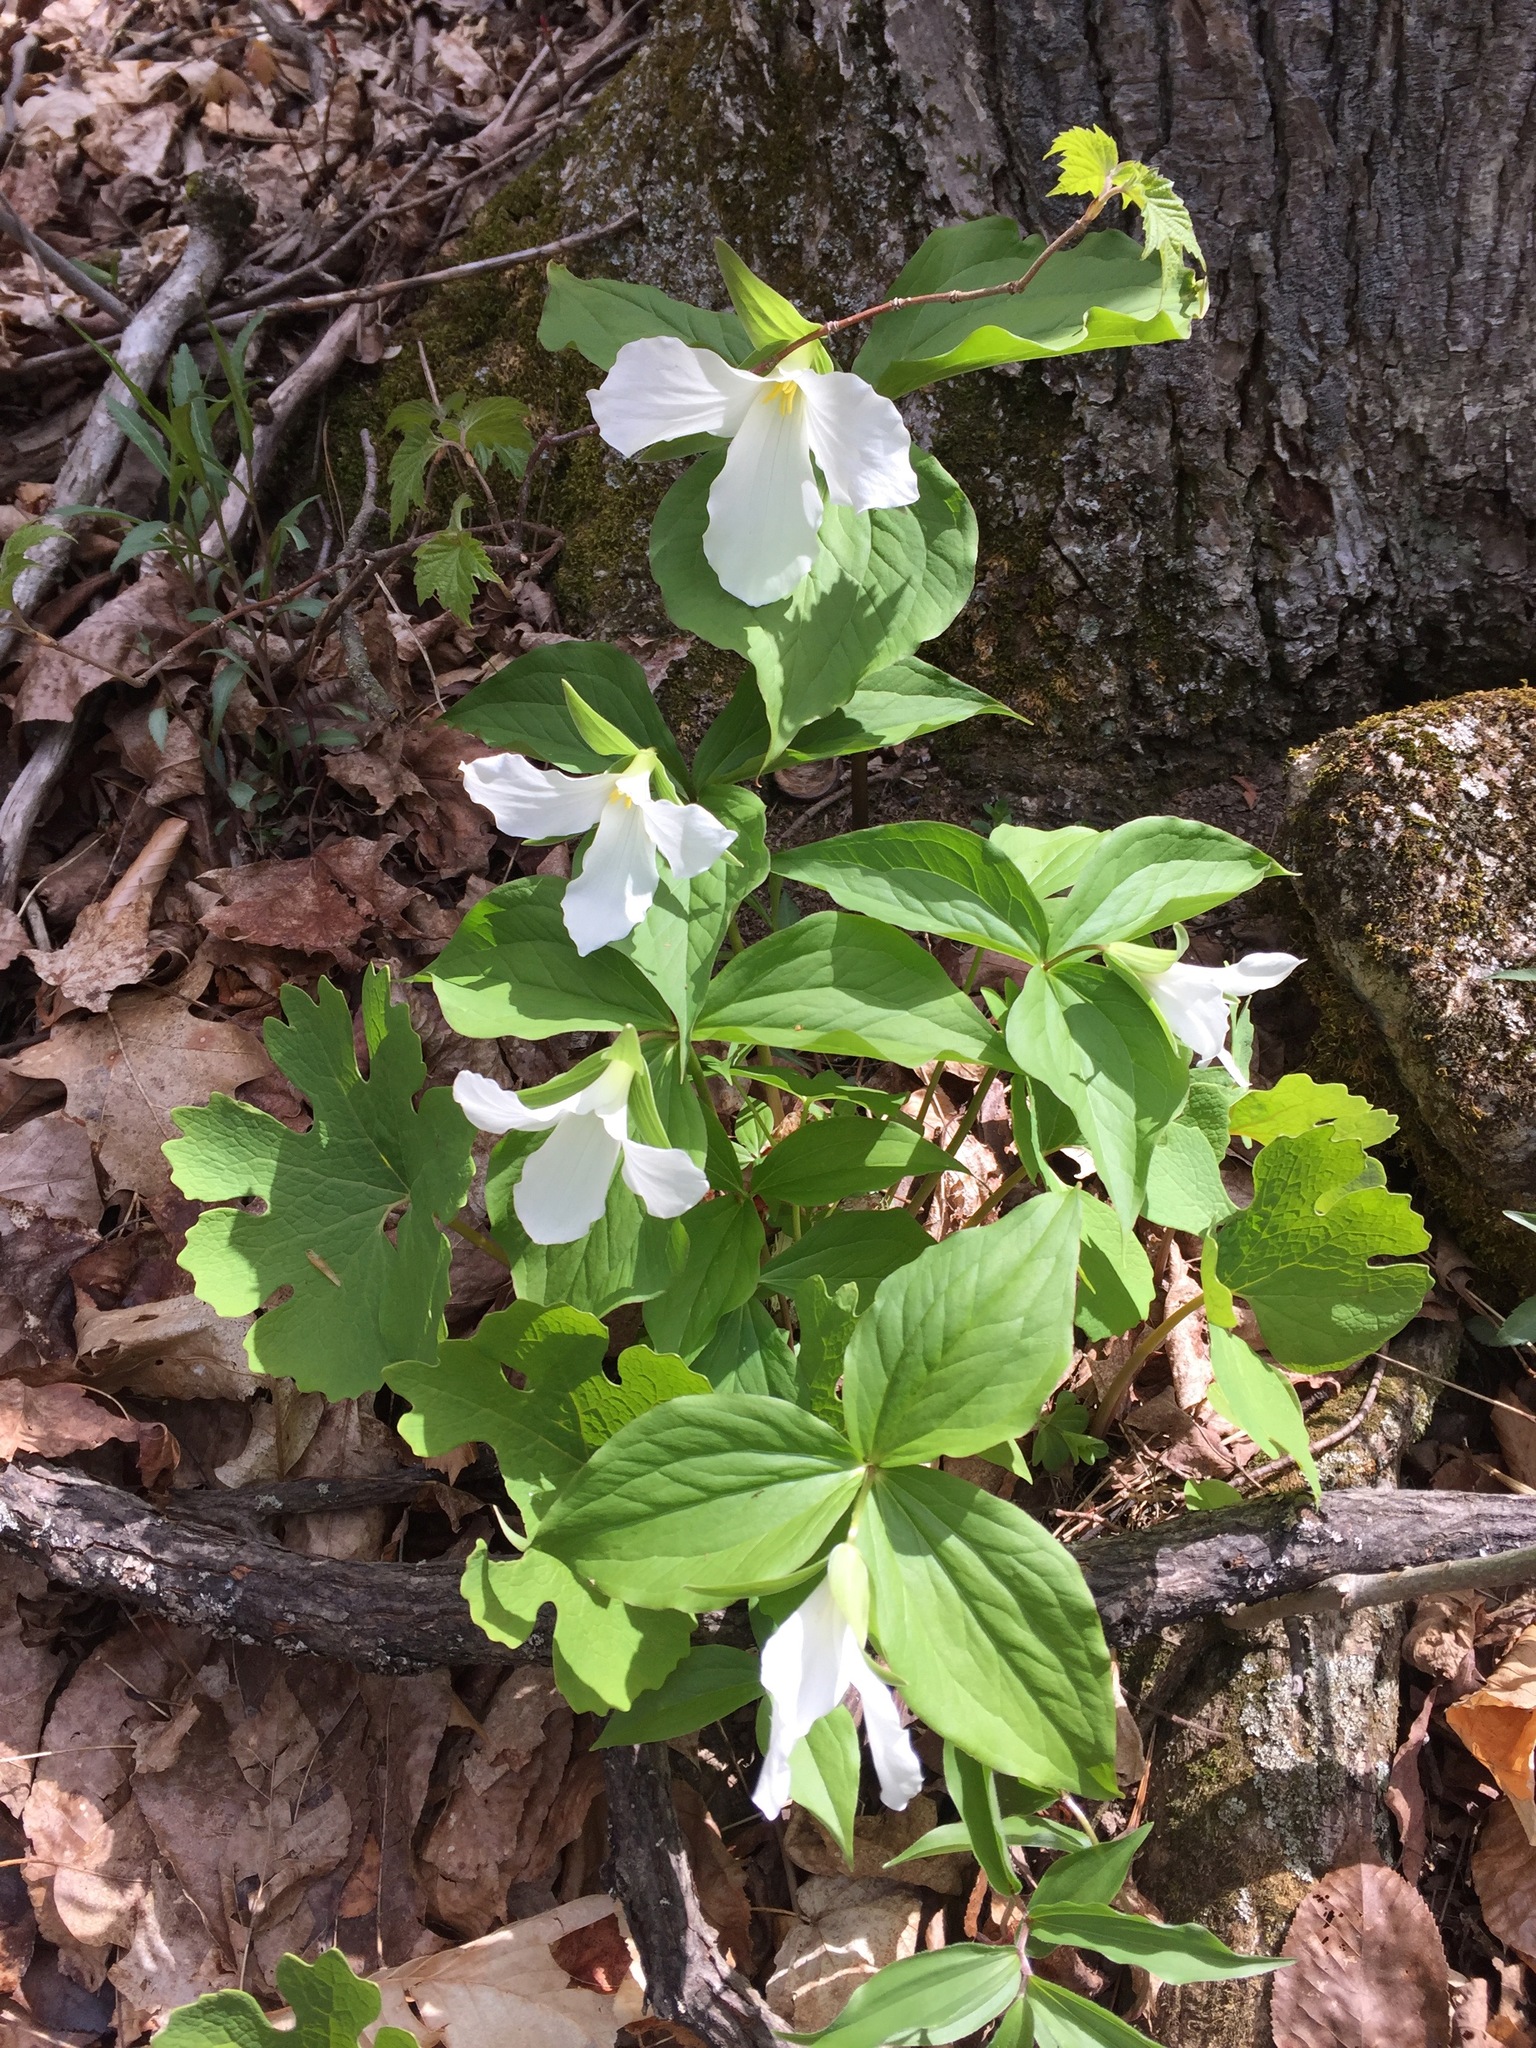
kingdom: Plantae
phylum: Tracheophyta
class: Liliopsida
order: Liliales
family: Melanthiaceae
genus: Trillium
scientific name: Trillium grandiflorum
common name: Great white trillium
